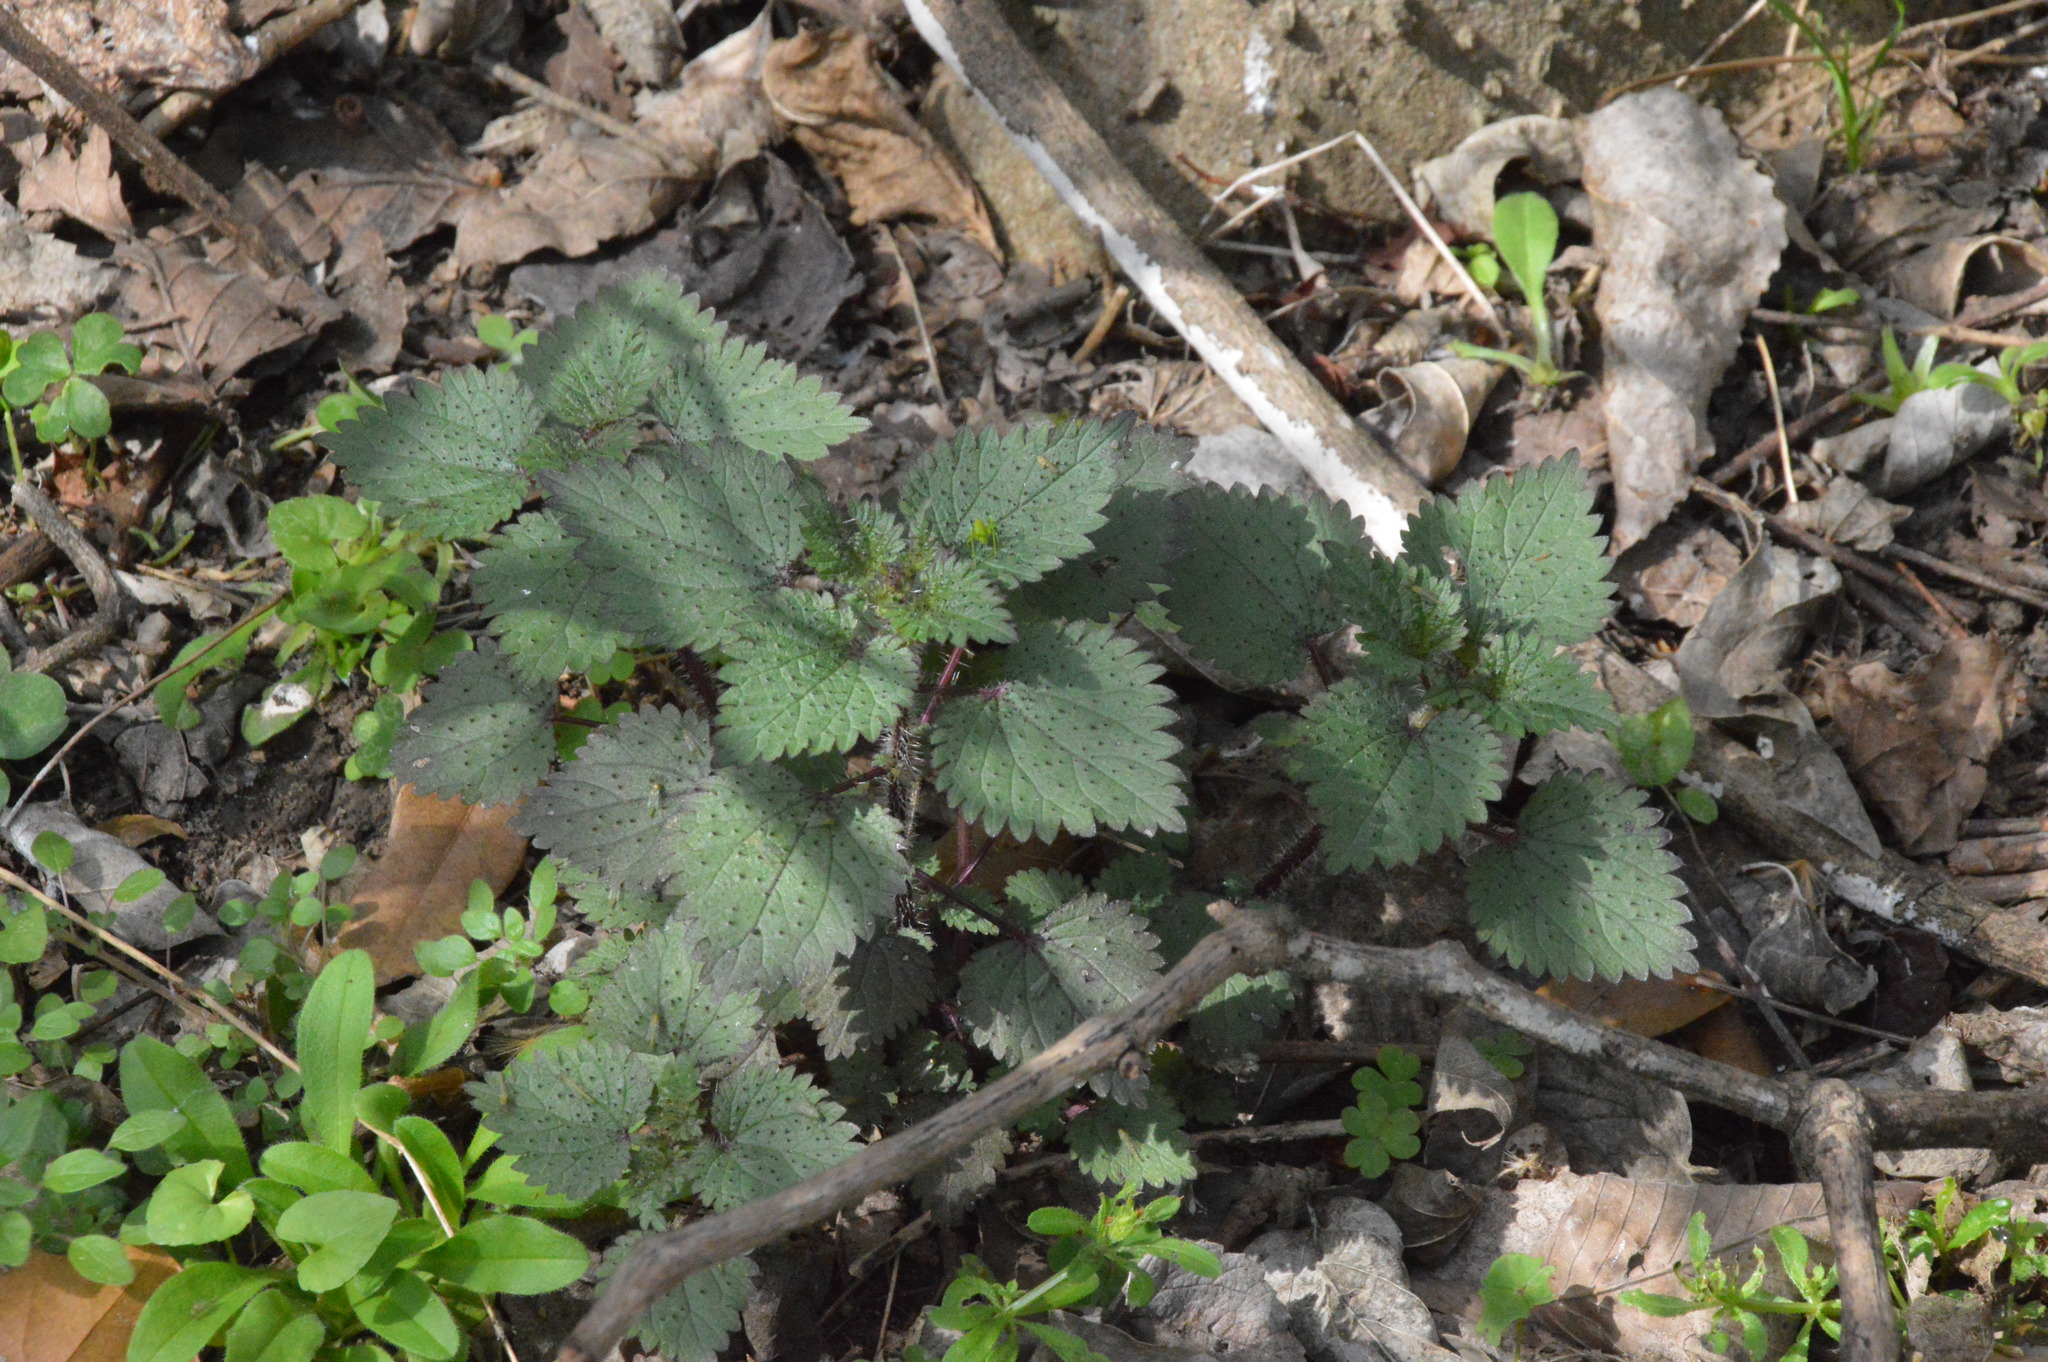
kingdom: Plantae
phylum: Tracheophyta
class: Magnoliopsida
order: Rosales
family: Urticaceae
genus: Urtica
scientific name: Urtica chamaedryoides
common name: Heart-leaf nettle
